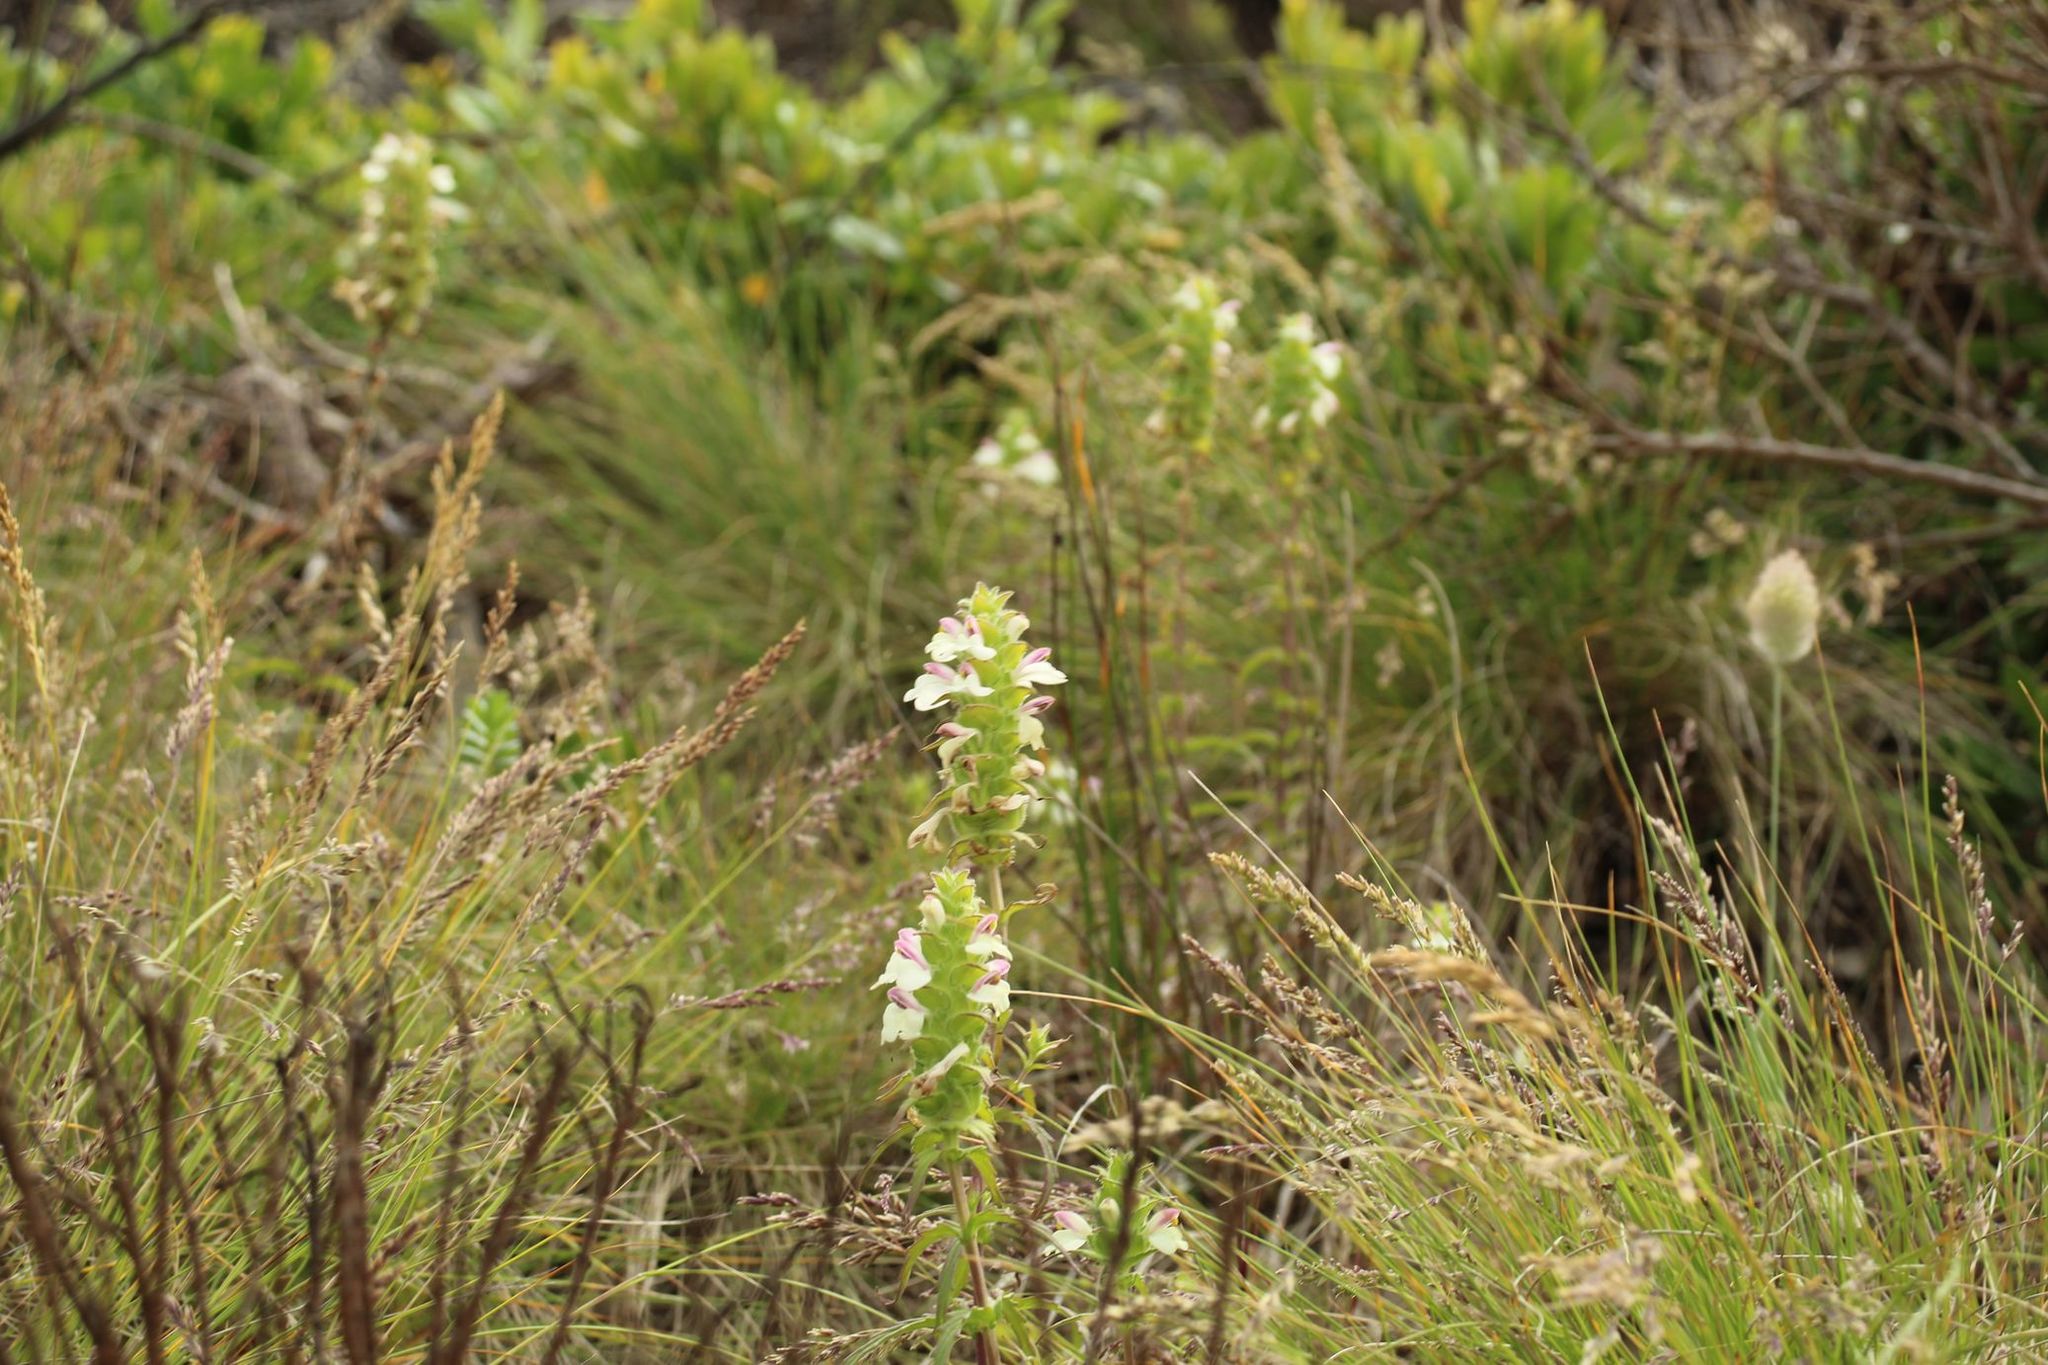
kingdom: Plantae
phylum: Tracheophyta
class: Magnoliopsida
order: Lamiales
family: Orobanchaceae
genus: Bellardia
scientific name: Bellardia trixago
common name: Mediterranean lineseed
